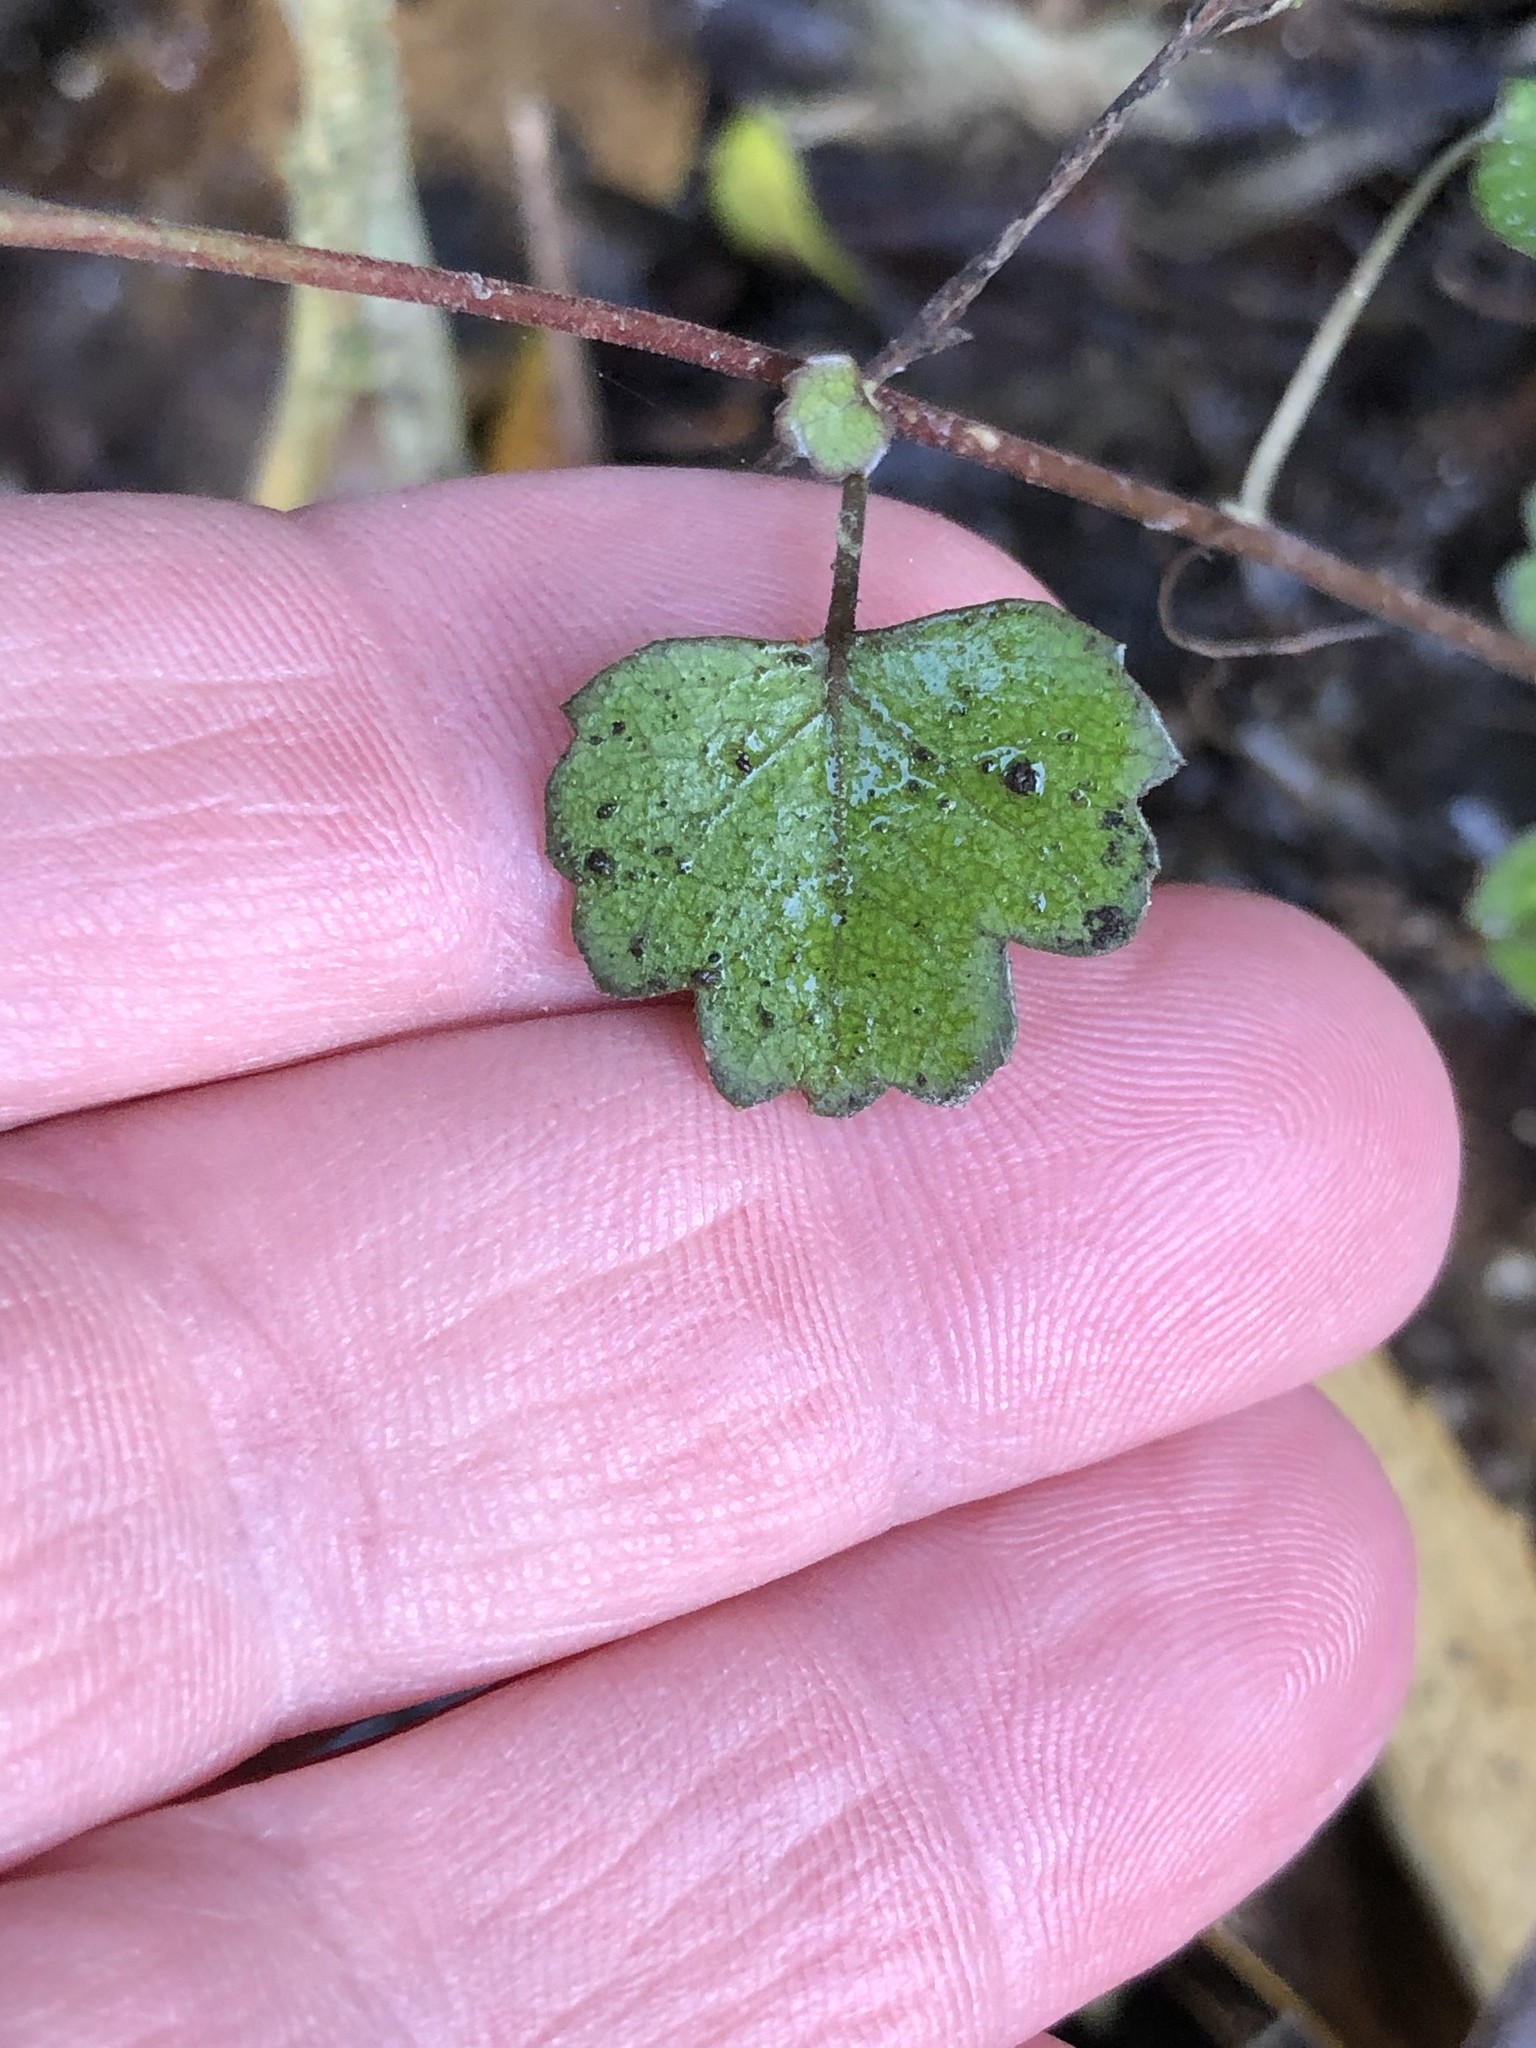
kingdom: Plantae
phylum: Tracheophyta
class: Magnoliopsida
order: Malvales
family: Malvaceae
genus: Plagianthus
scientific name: Plagianthus regius
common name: Manatu
